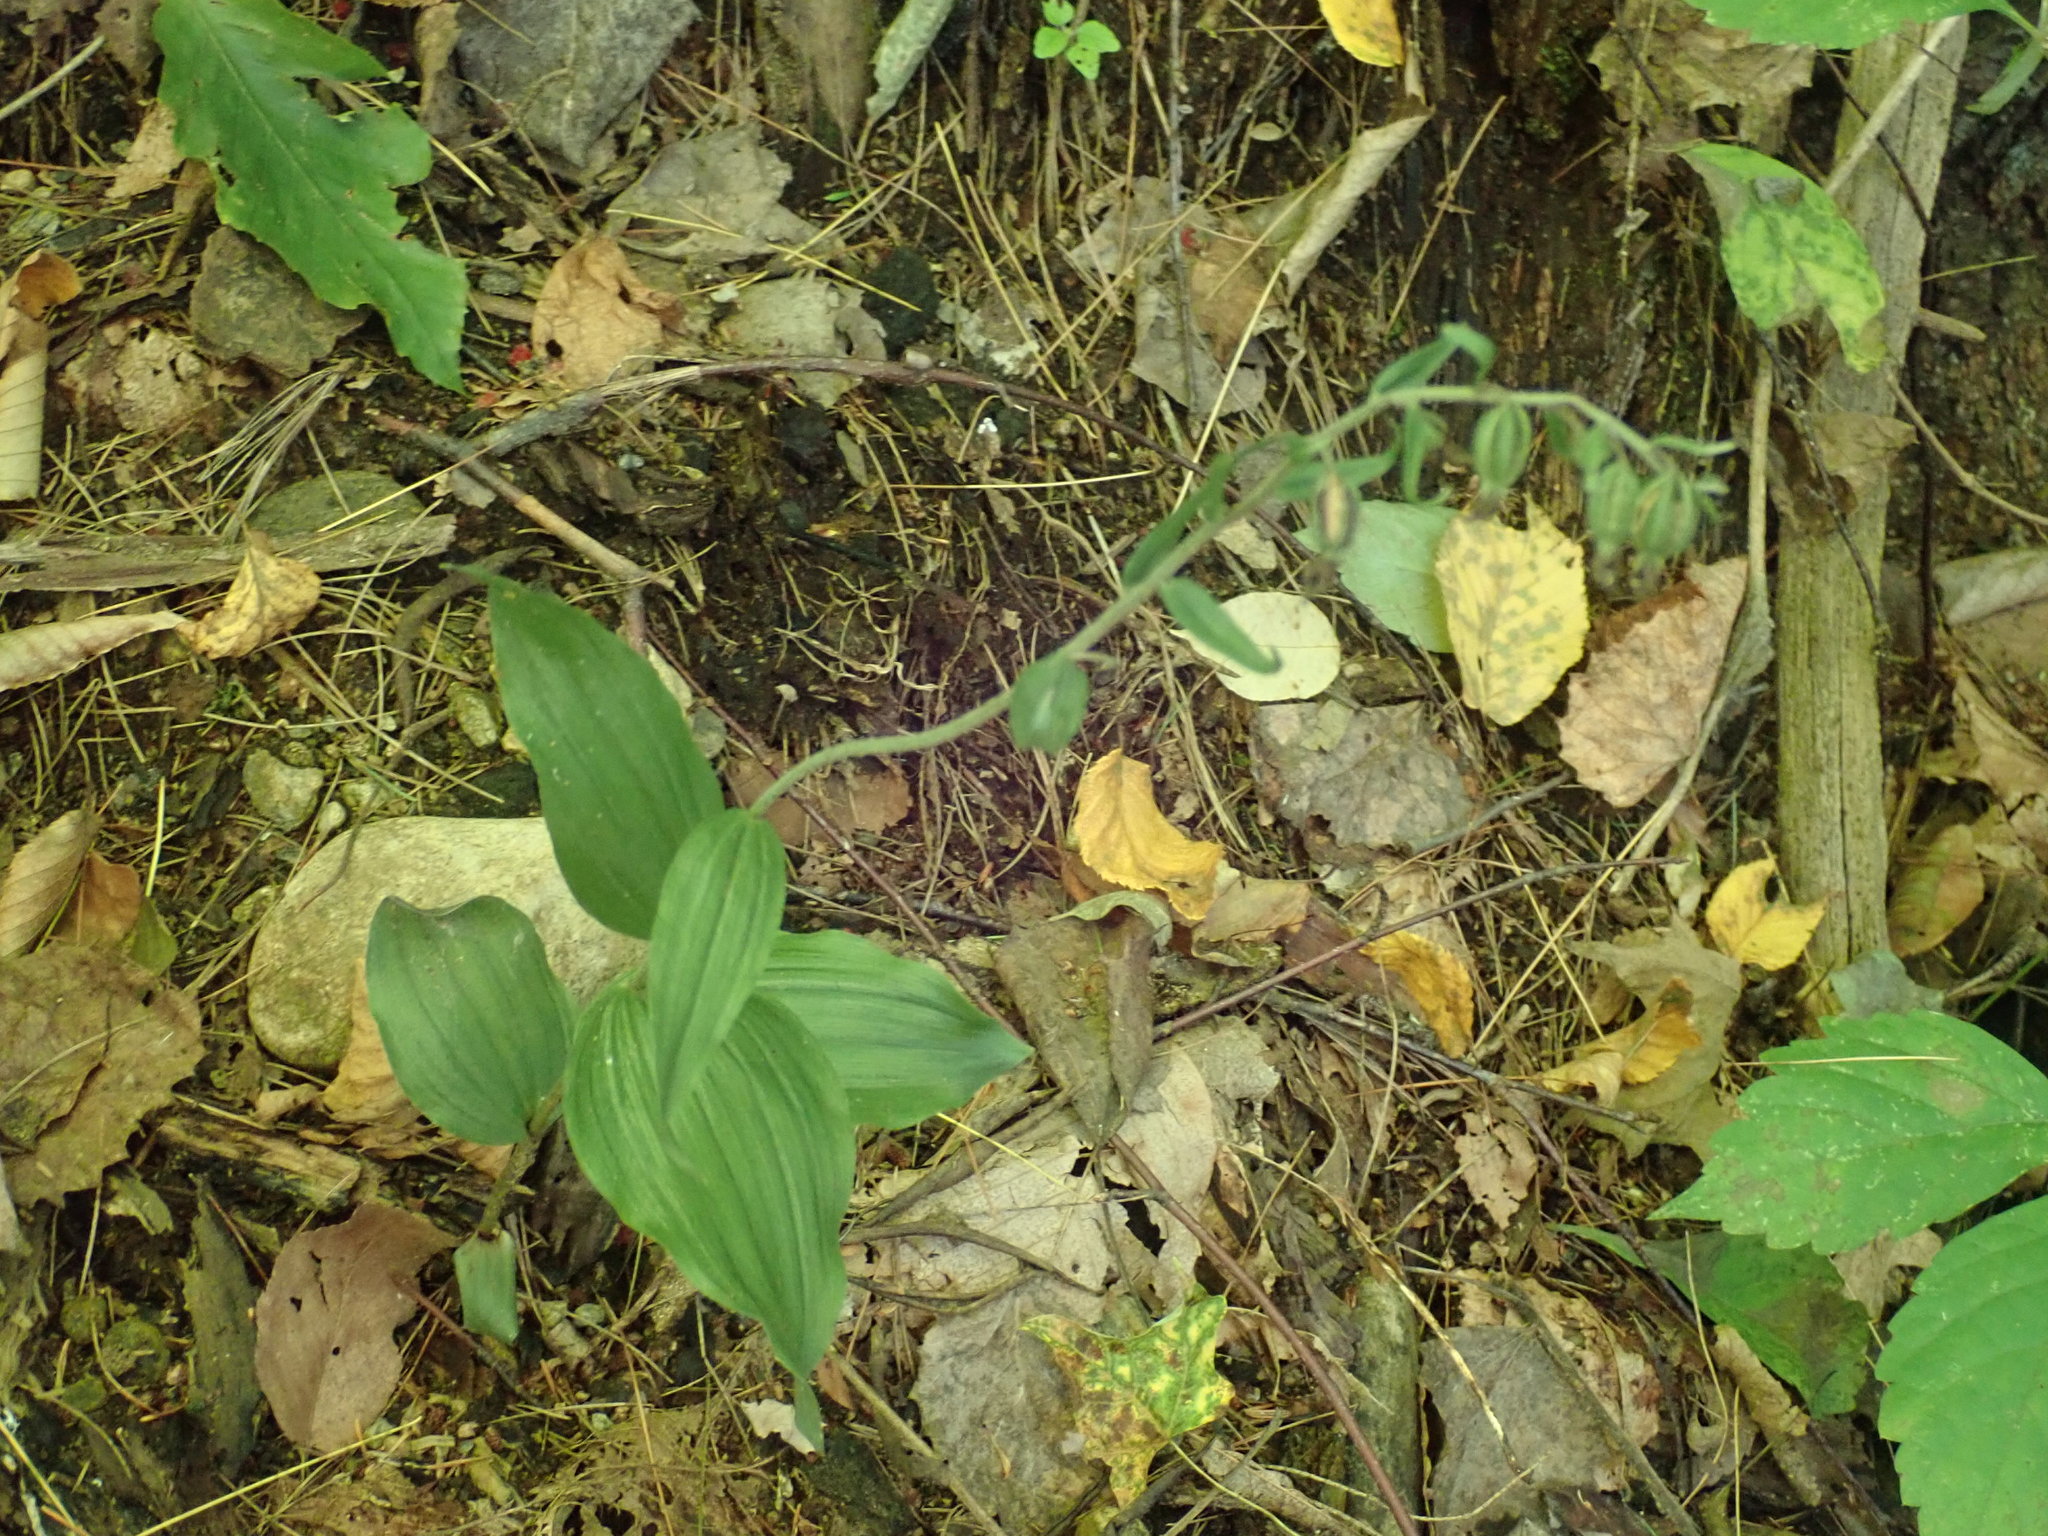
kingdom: Plantae
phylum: Tracheophyta
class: Liliopsida
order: Asparagales
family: Orchidaceae
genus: Epipactis
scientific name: Epipactis helleborine
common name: Broad-leaved helleborine
